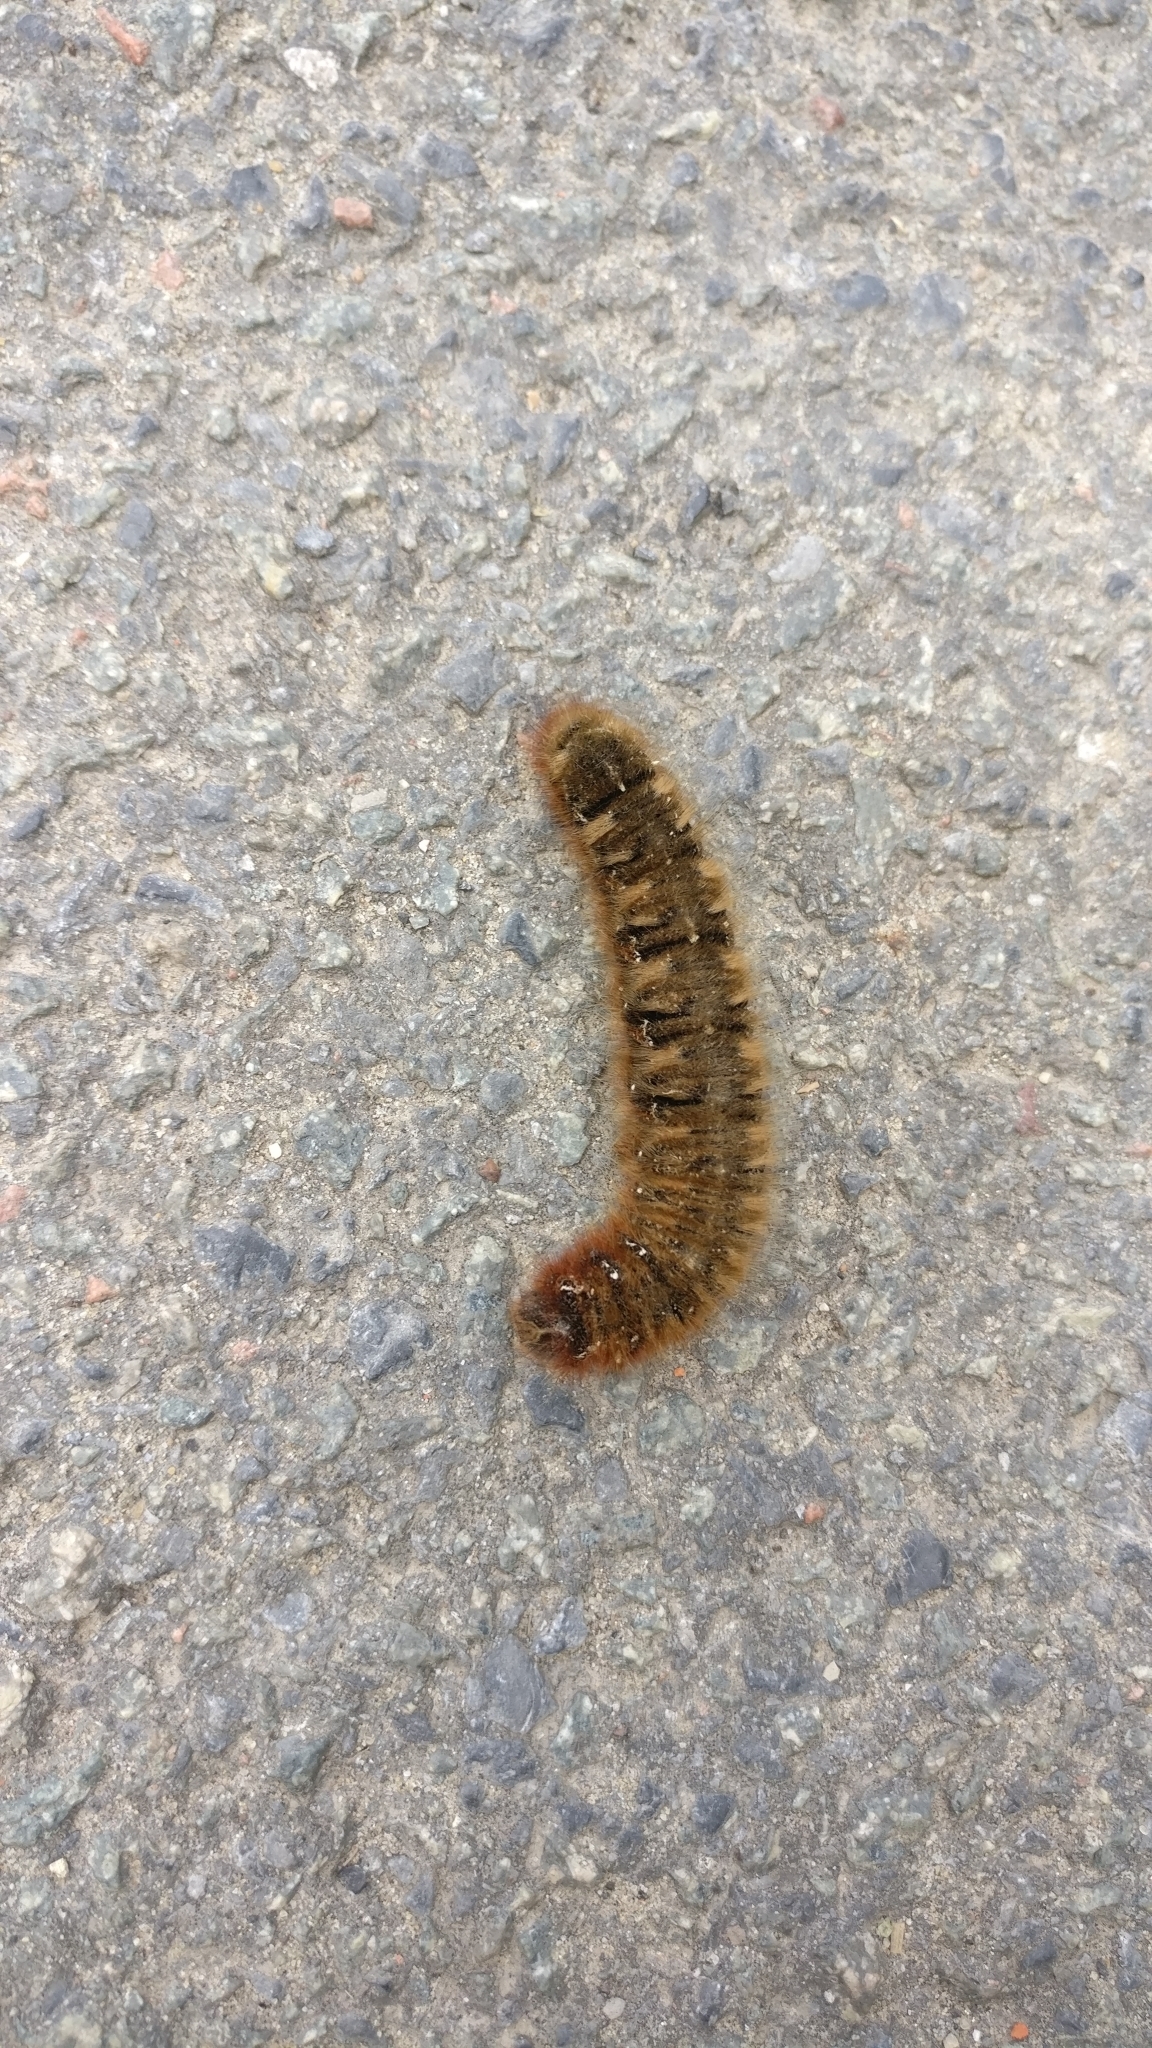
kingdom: Animalia
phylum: Arthropoda
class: Insecta
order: Lepidoptera
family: Lasiocampidae
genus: Lasiocampa
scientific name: Lasiocampa quercus
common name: Oak eggar
